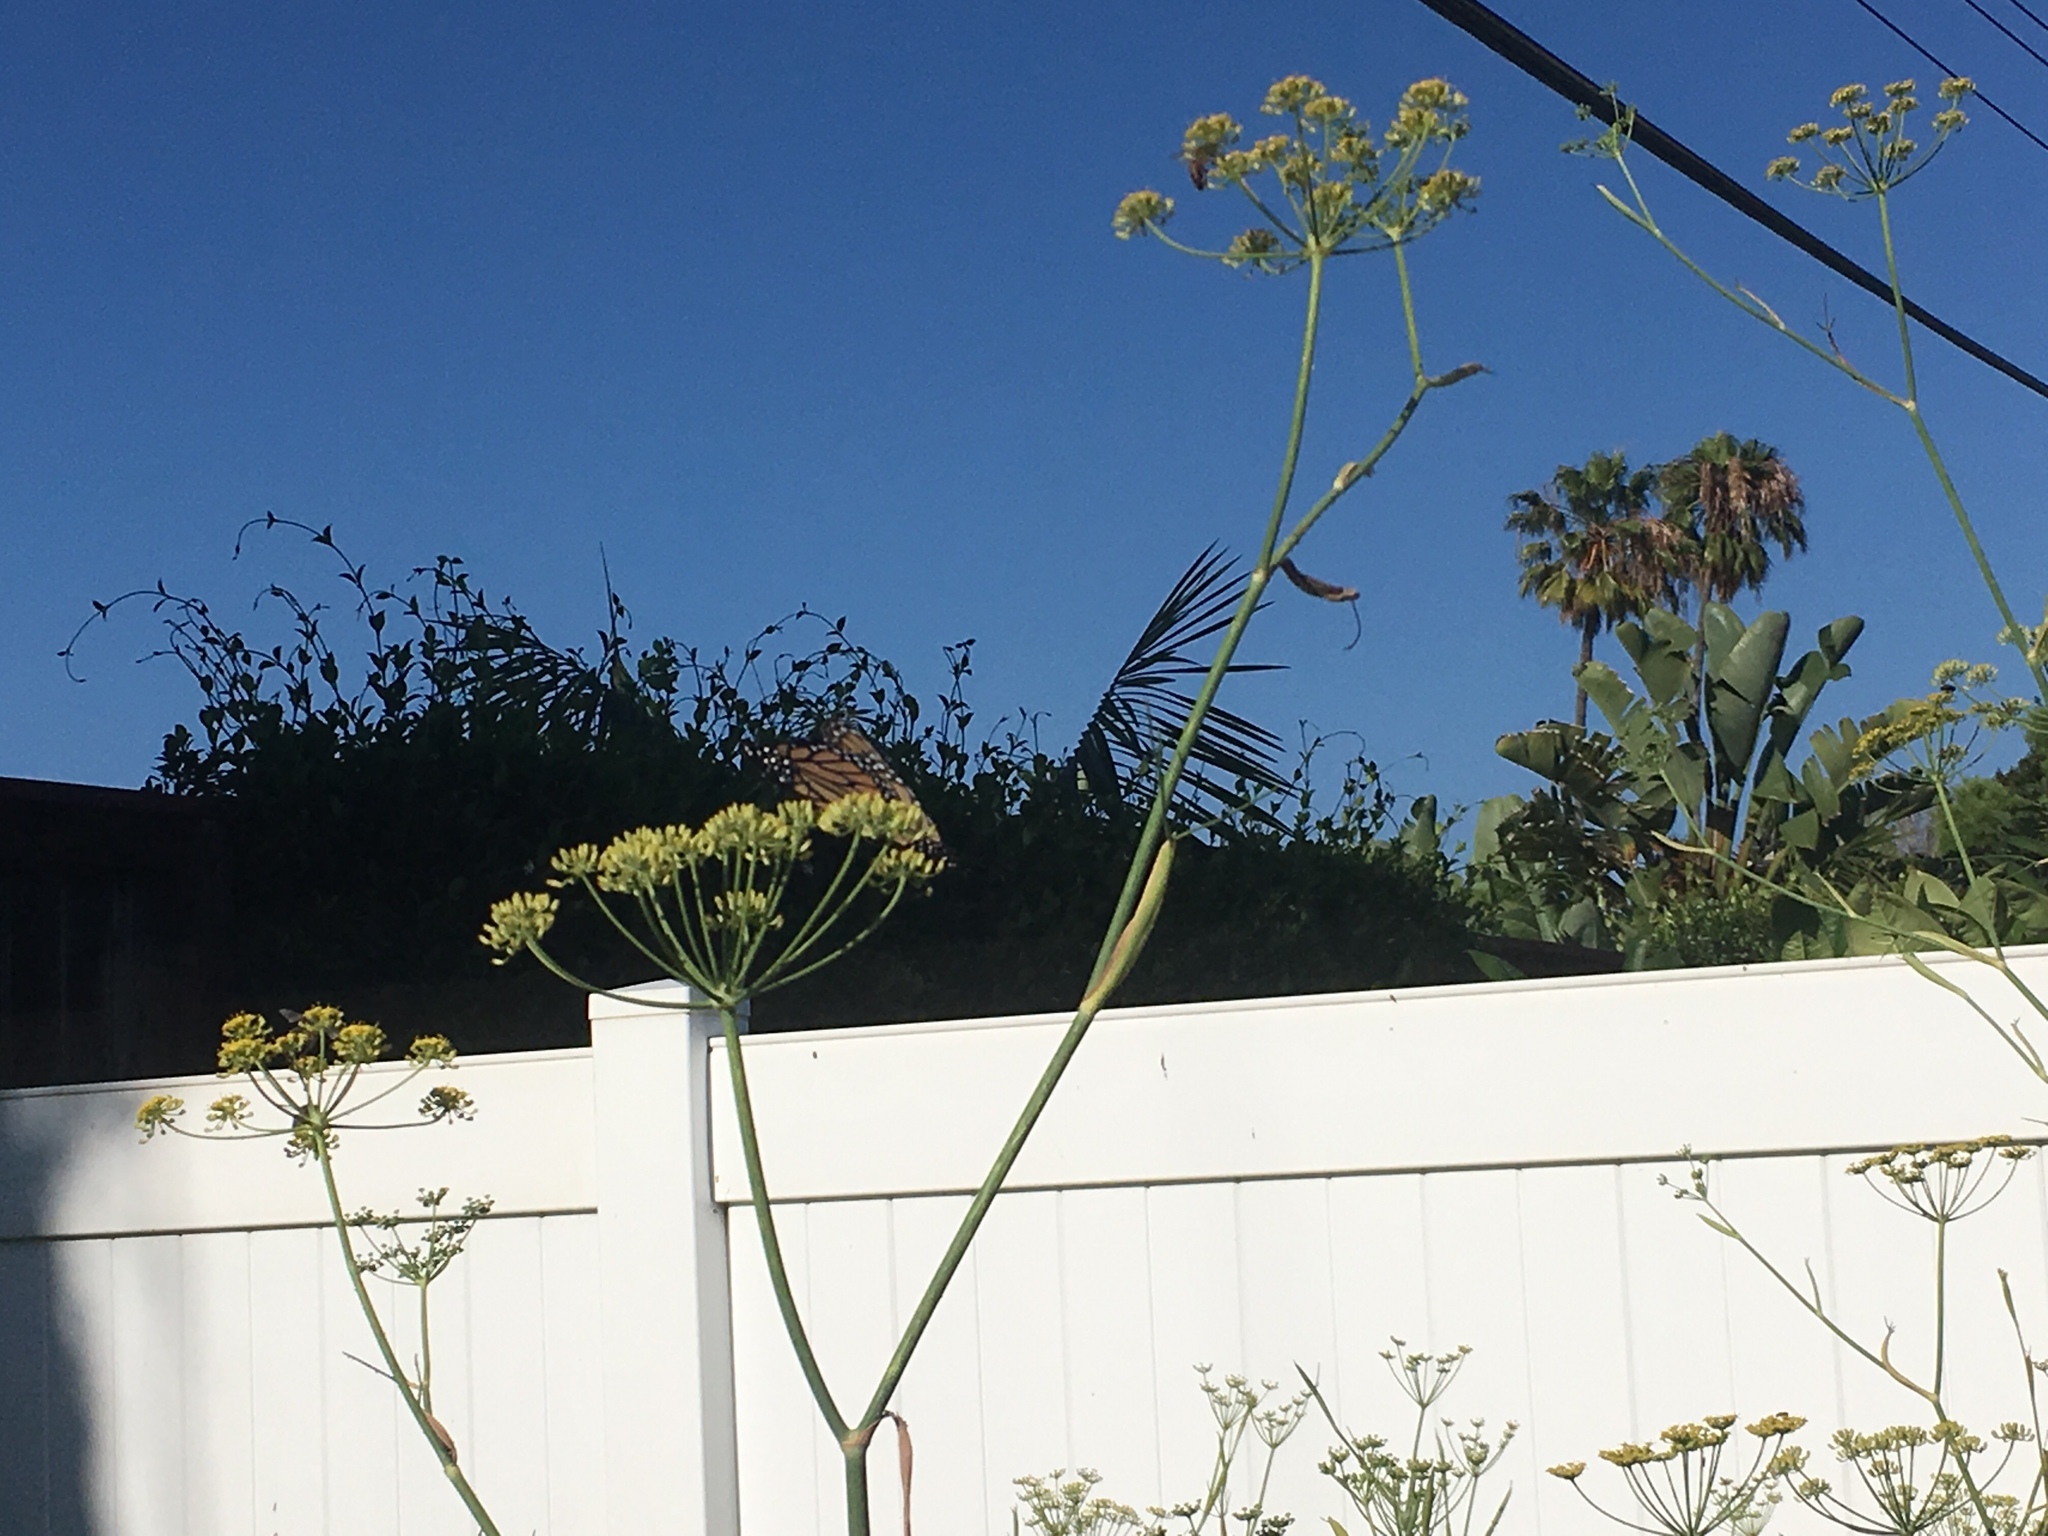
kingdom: Animalia
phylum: Arthropoda
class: Insecta
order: Lepidoptera
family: Nymphalidae
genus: Danaus
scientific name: Danaus plexippus
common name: Monarch
